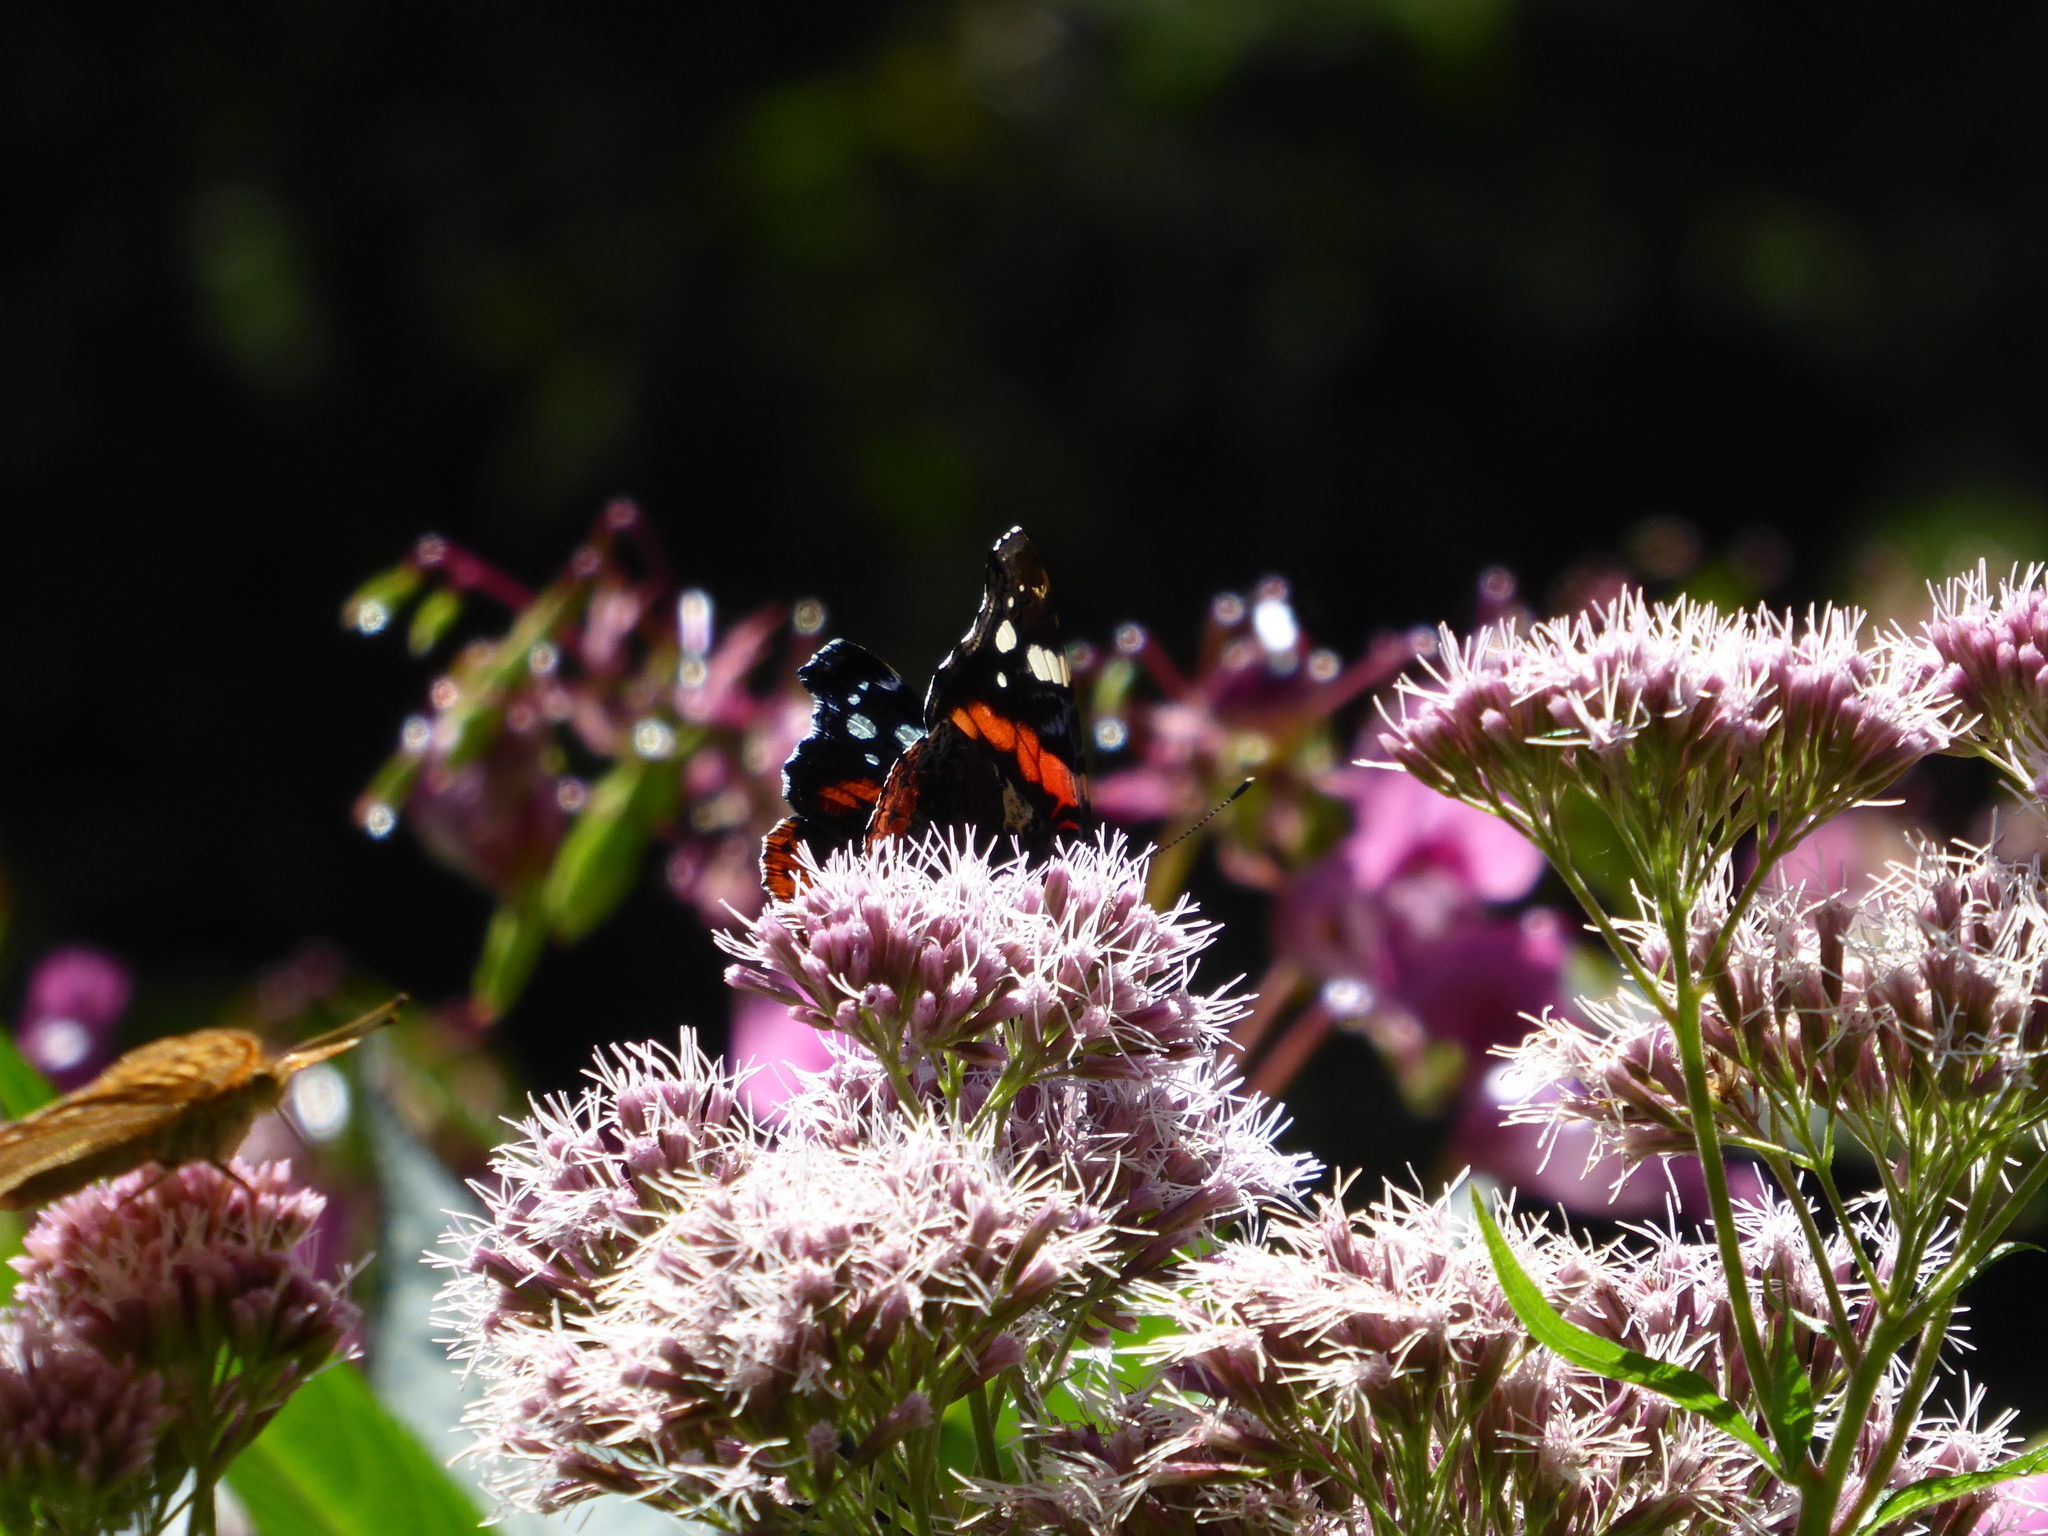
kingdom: Animalia
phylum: Arthropoda
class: Insecta
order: Lepidoptera
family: Nymphalidae
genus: Vanessa
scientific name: Vanessa atalanta
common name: Red admiral
